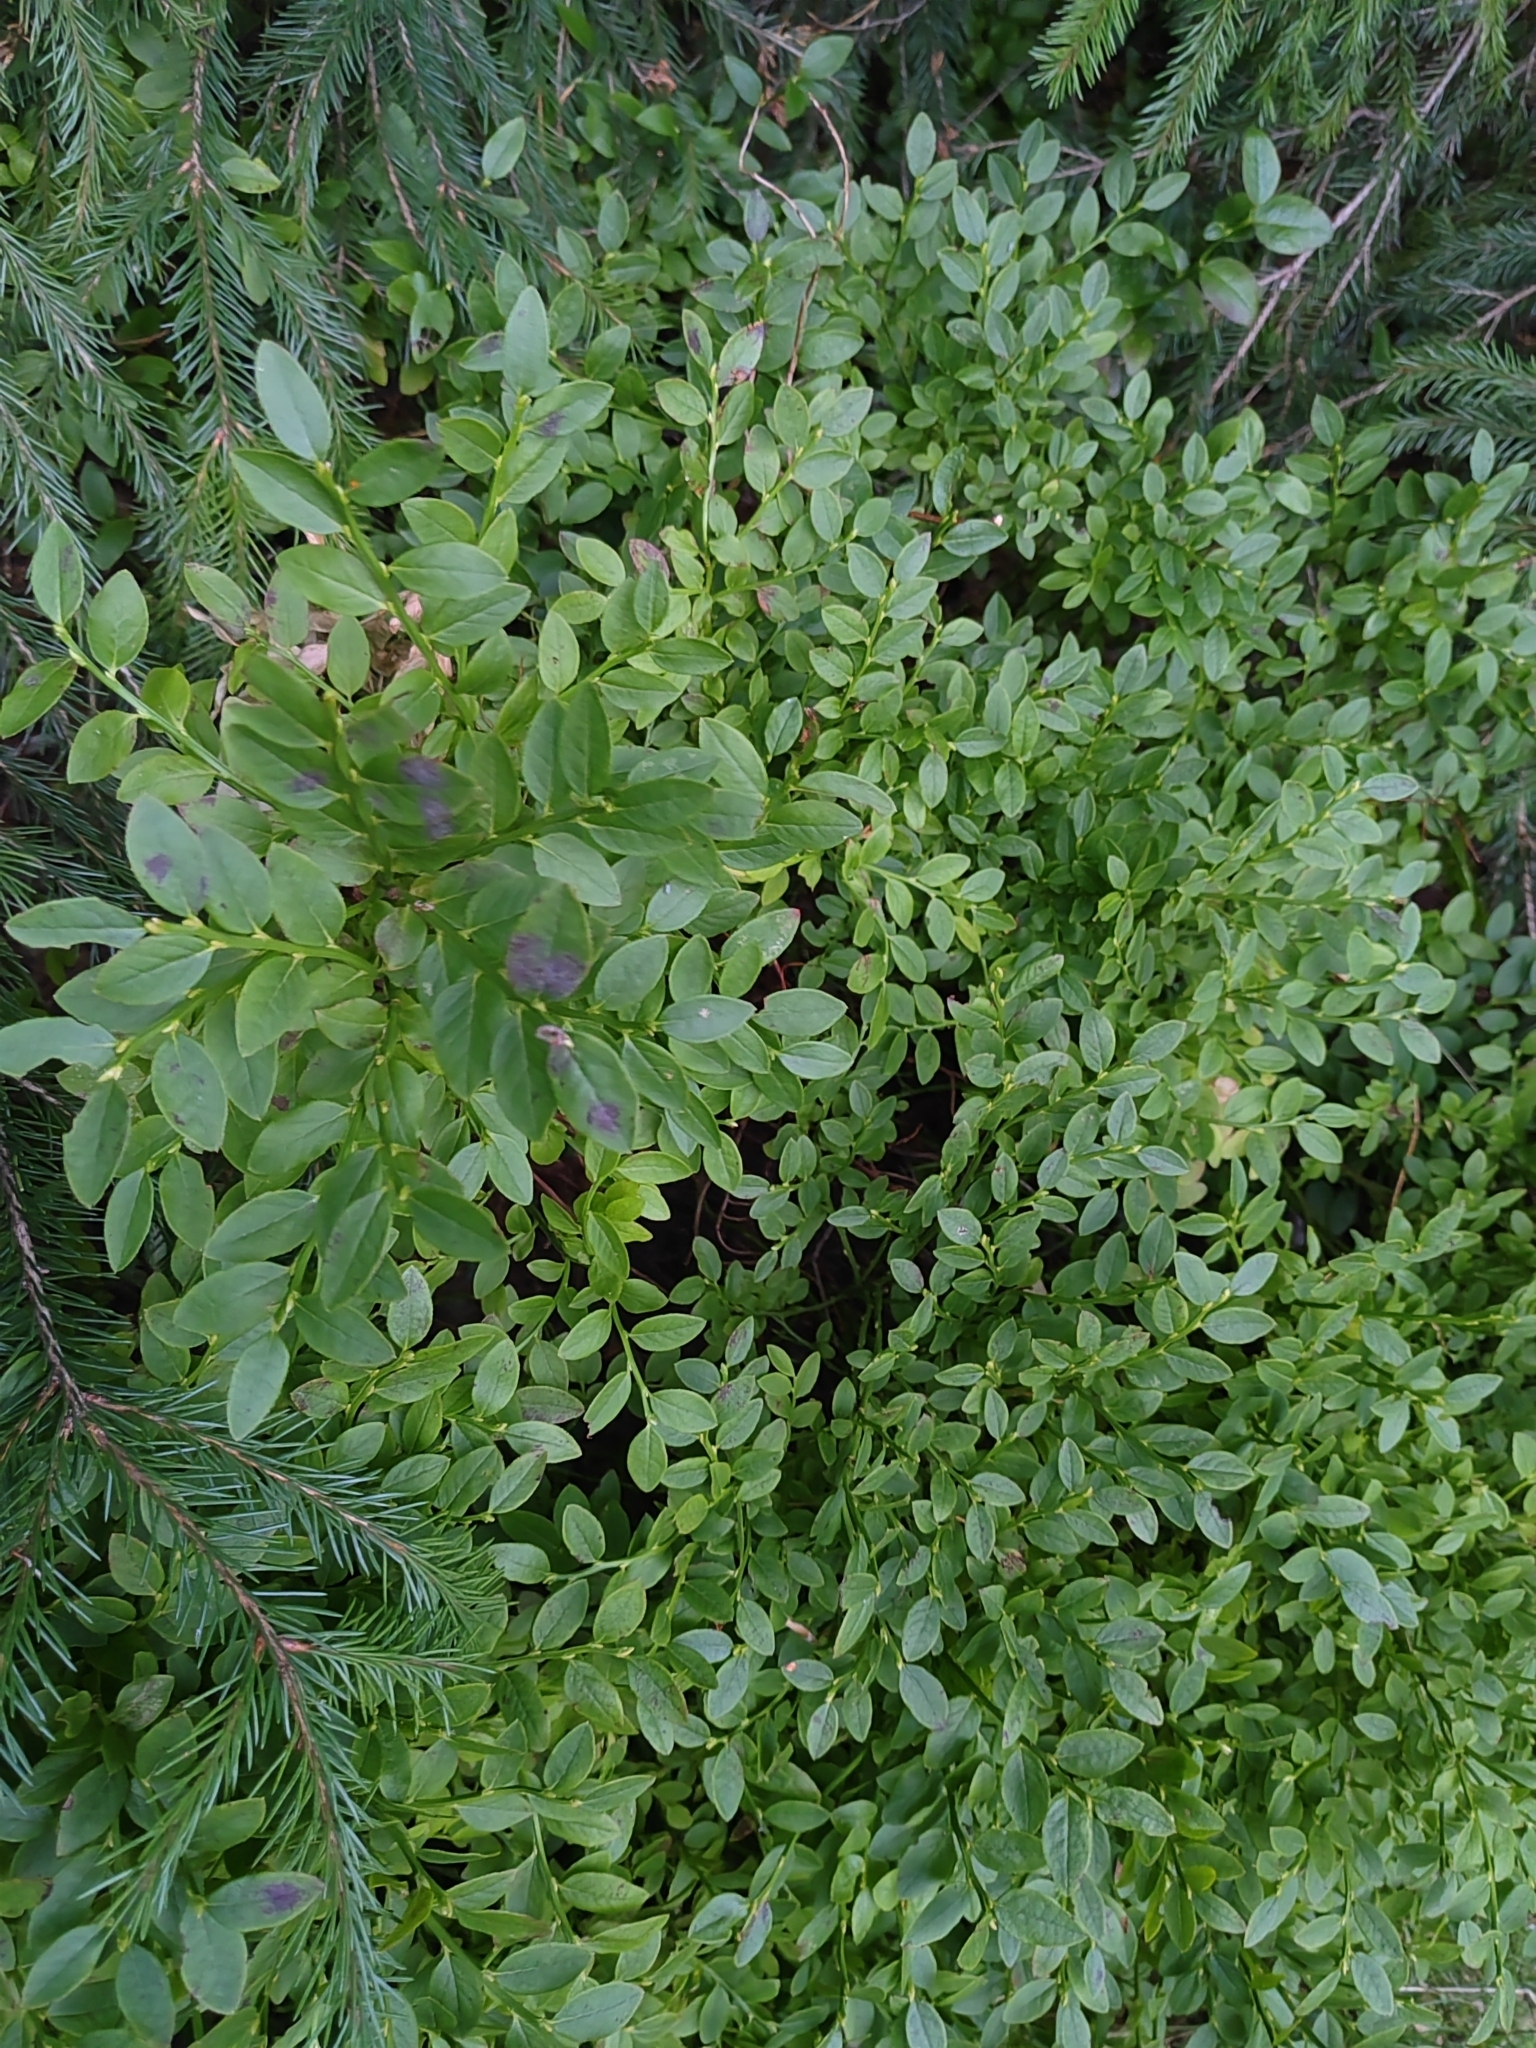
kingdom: Plantae
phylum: Tracheophyta
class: Magnoliopsida
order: Ericales
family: Ericaceae
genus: Vaccinium
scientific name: Vaccinium myrtillus
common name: Bilberry
